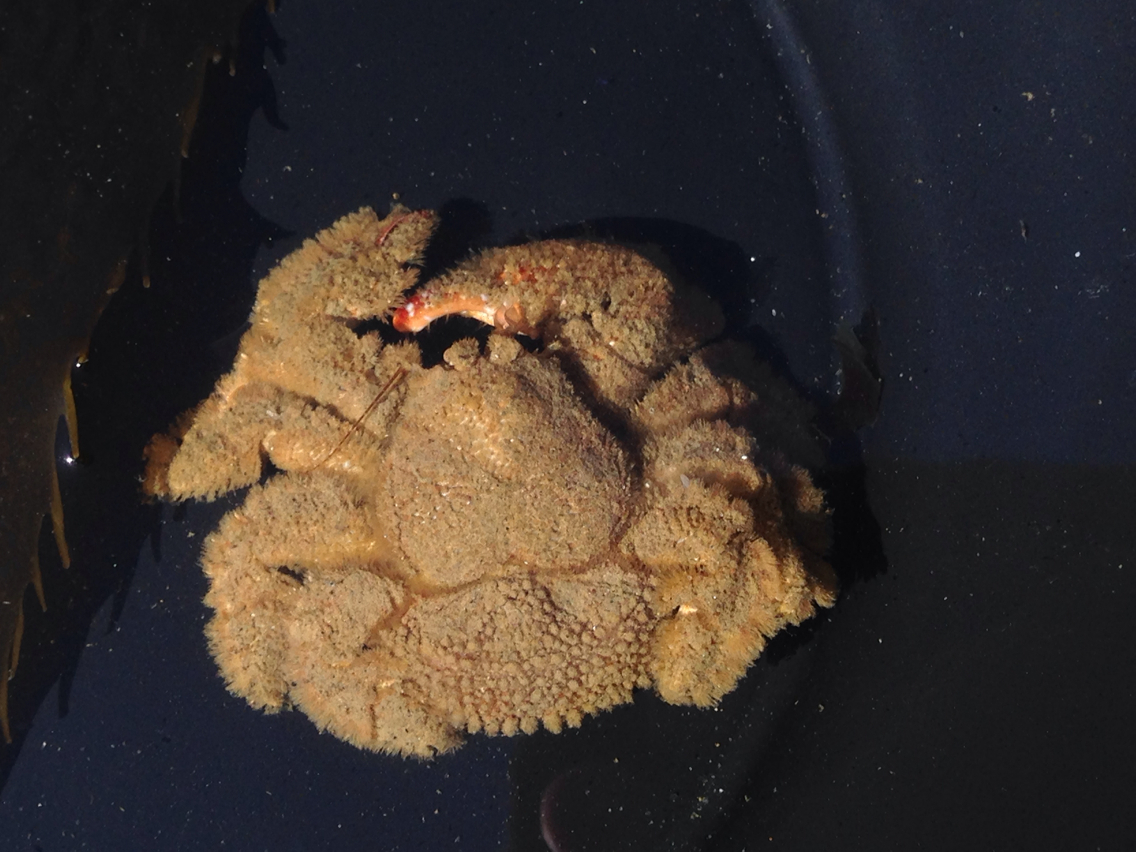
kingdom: Animalia
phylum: Arthropoda
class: Malacostraca
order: Decapoda
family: Hapalogastridae
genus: Hapalogaster
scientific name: Hapalogaster cavicauda
